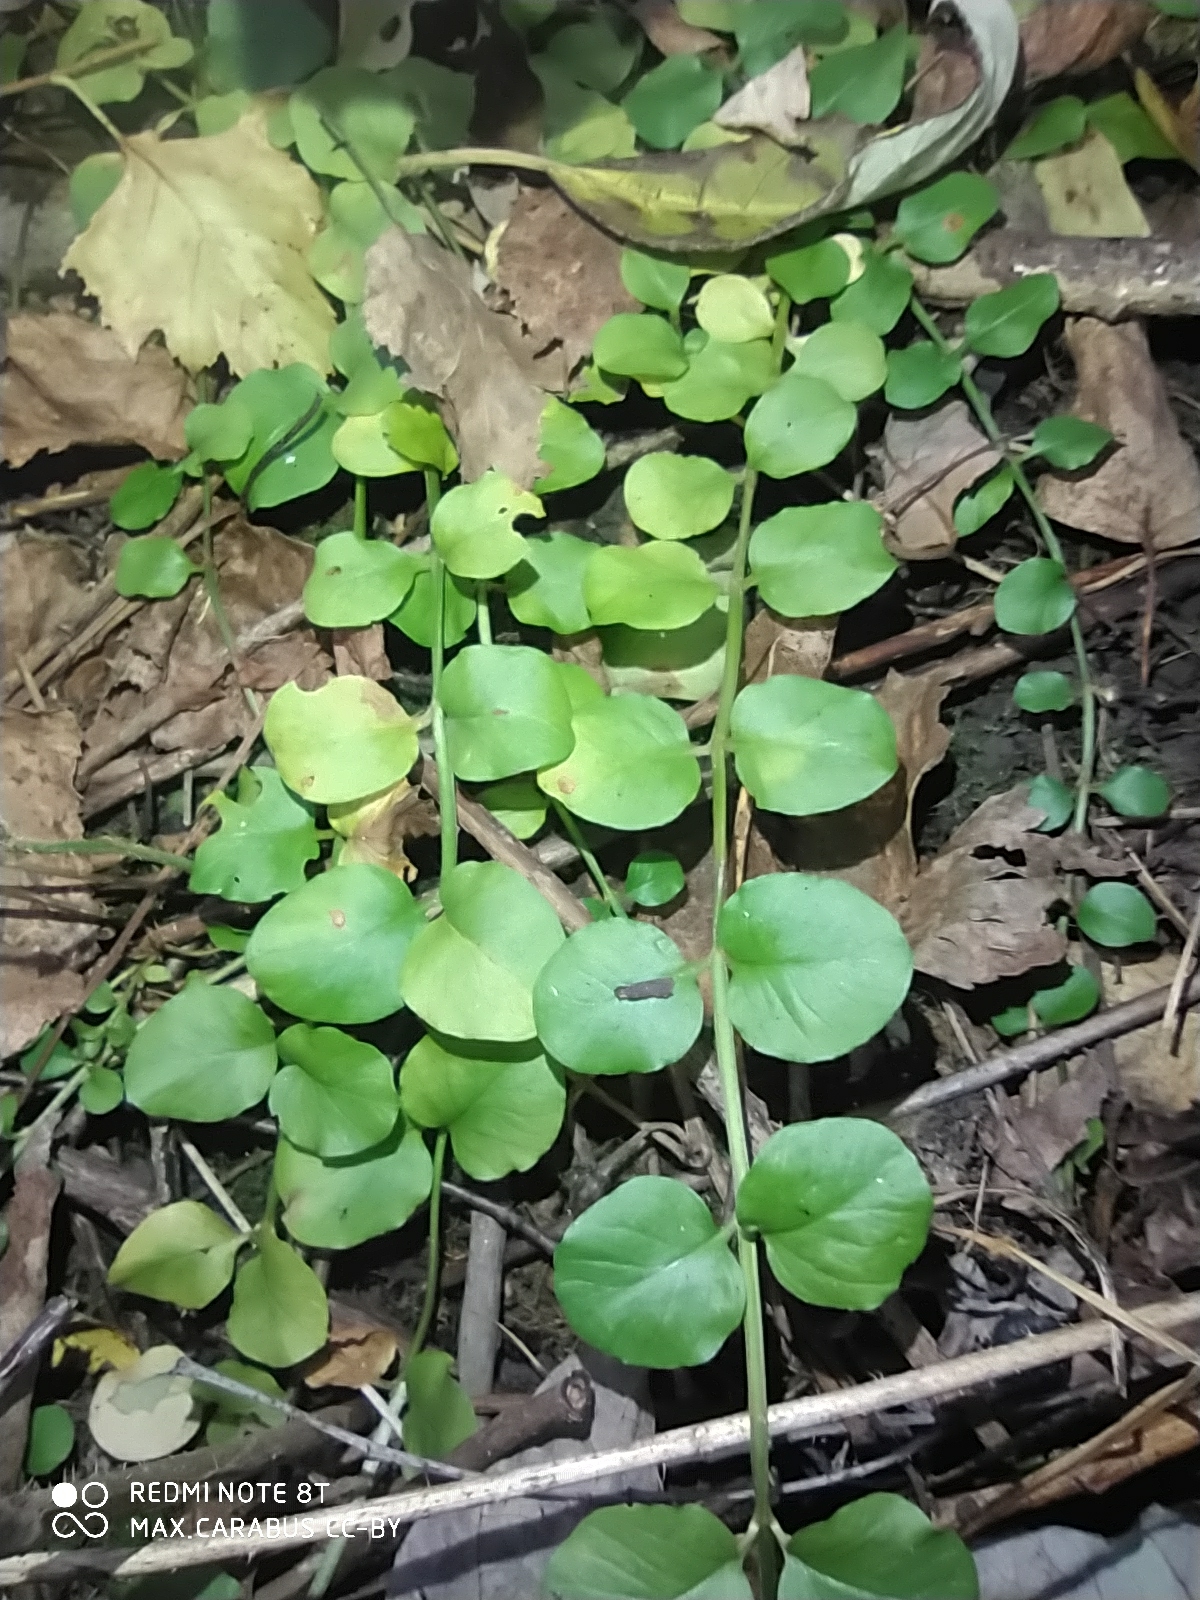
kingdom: Plantae
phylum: Tracheophyta
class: Magnoliopsida
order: Ericales
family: Primulaceae
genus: Lysimachia
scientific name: Lysimachia nummularia
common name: Moneywort
